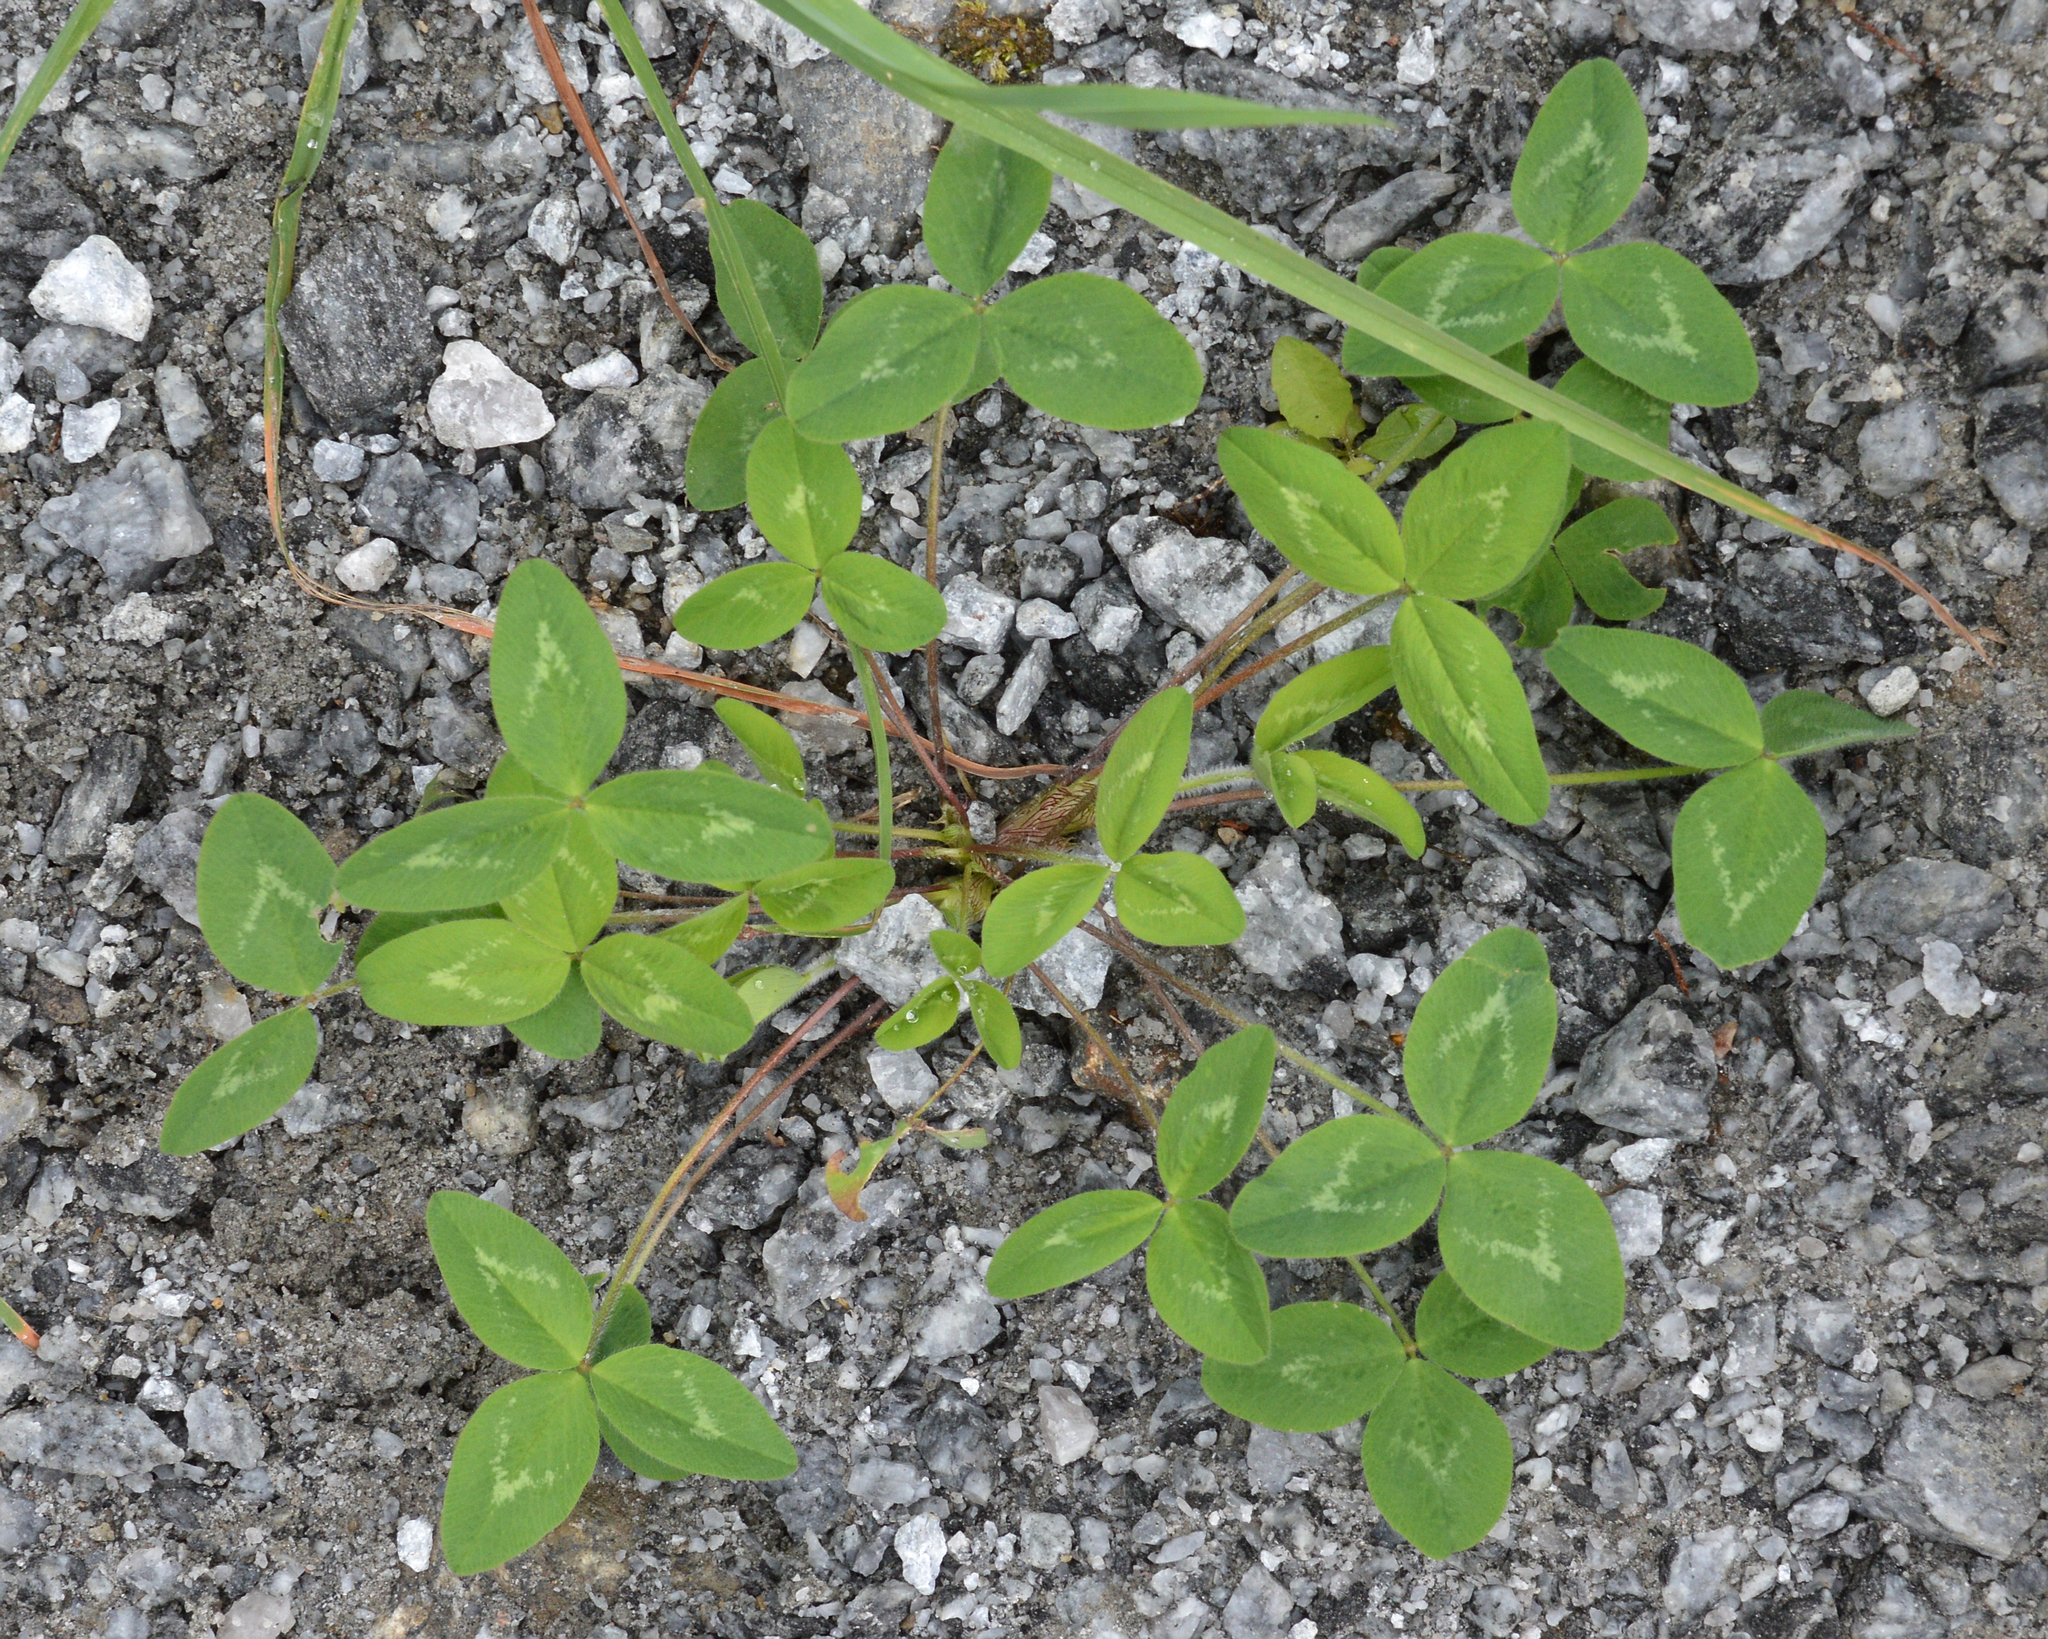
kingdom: Plantae
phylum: Tracheophyta
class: Magnoliopsida
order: Fabales
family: Fabaceae
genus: Trifolium
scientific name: Trifolium pratense
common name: Red clover
